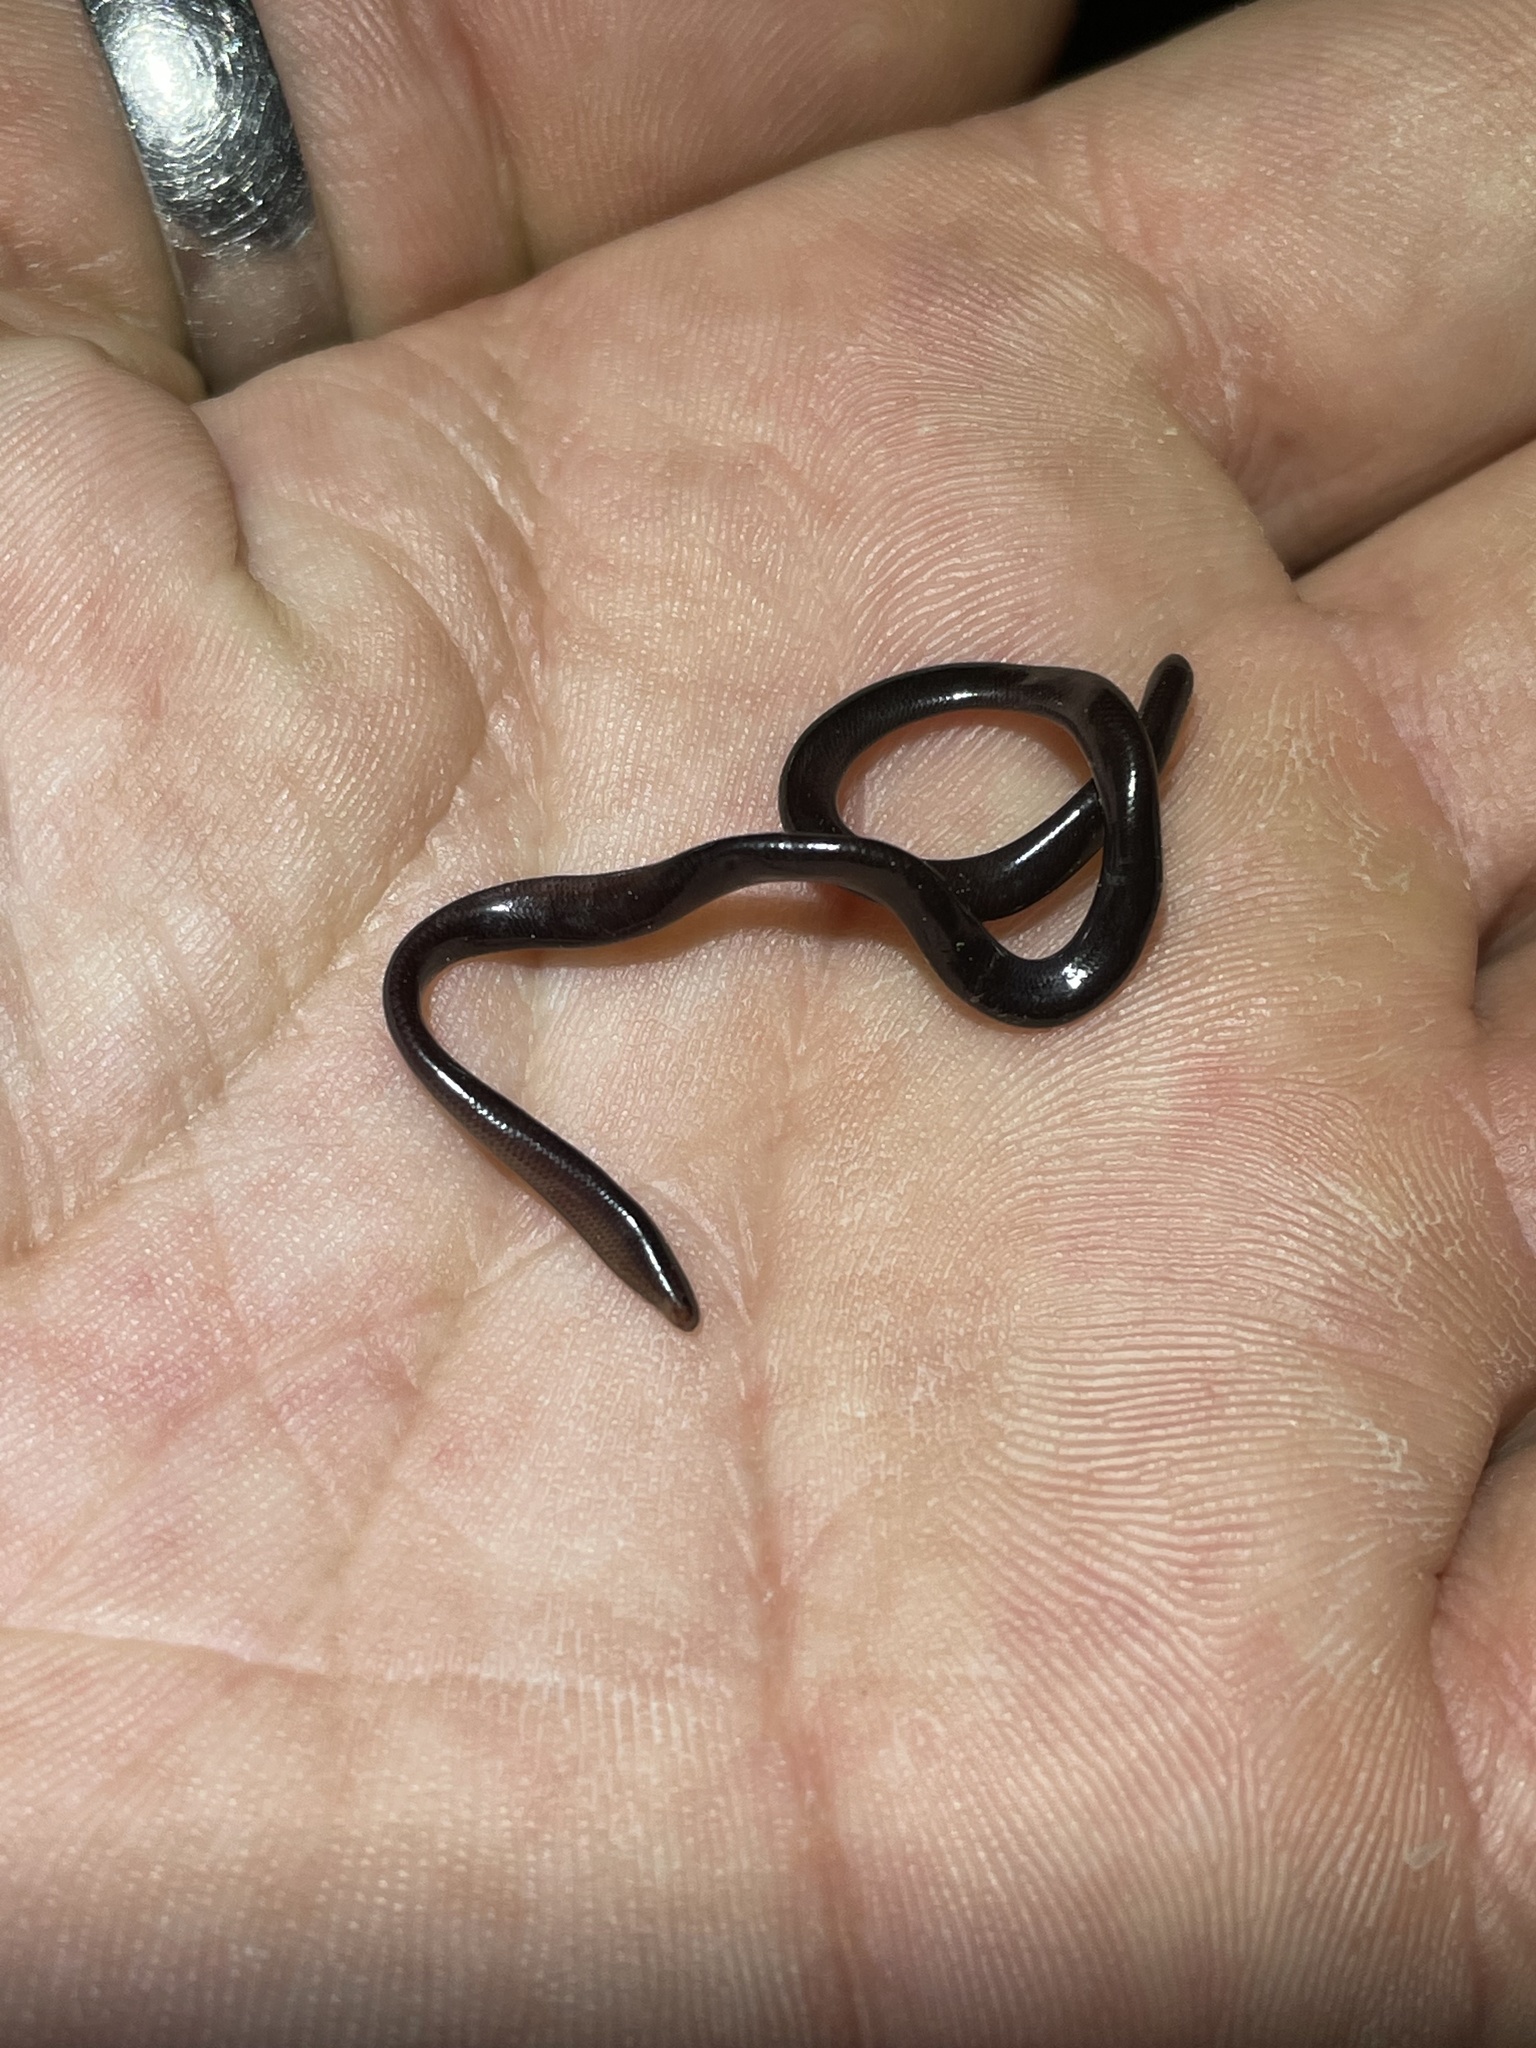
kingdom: Animalia
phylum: Chordata
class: Squamata
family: Typhlopidae
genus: Indotyphlops
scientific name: Indotyphlops braminus
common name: Brahminy blindsnake
